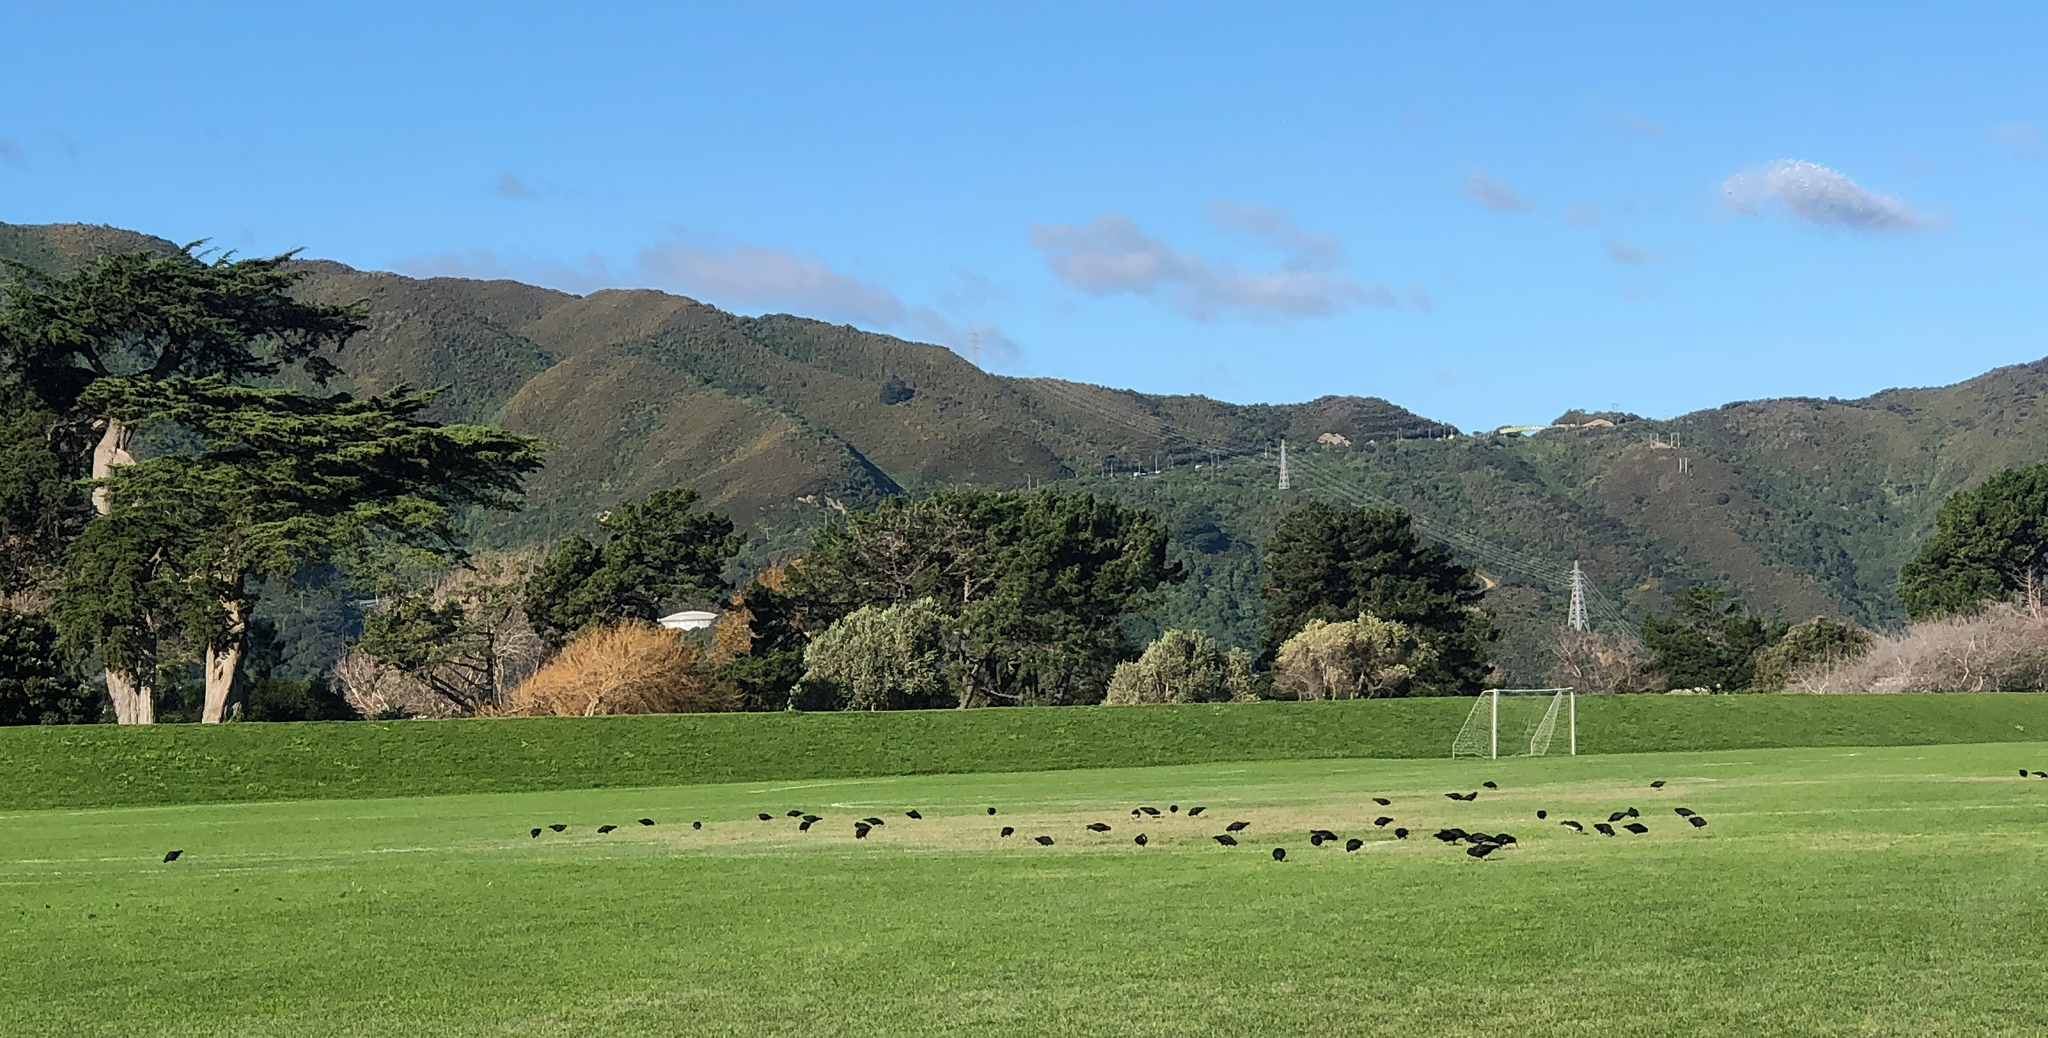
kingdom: Animalia
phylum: Chordata
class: Aves
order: Charadriiformes
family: Haematopodidae
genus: Haematopus
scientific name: Haematopus unicolor
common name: Variable oystercatcher
